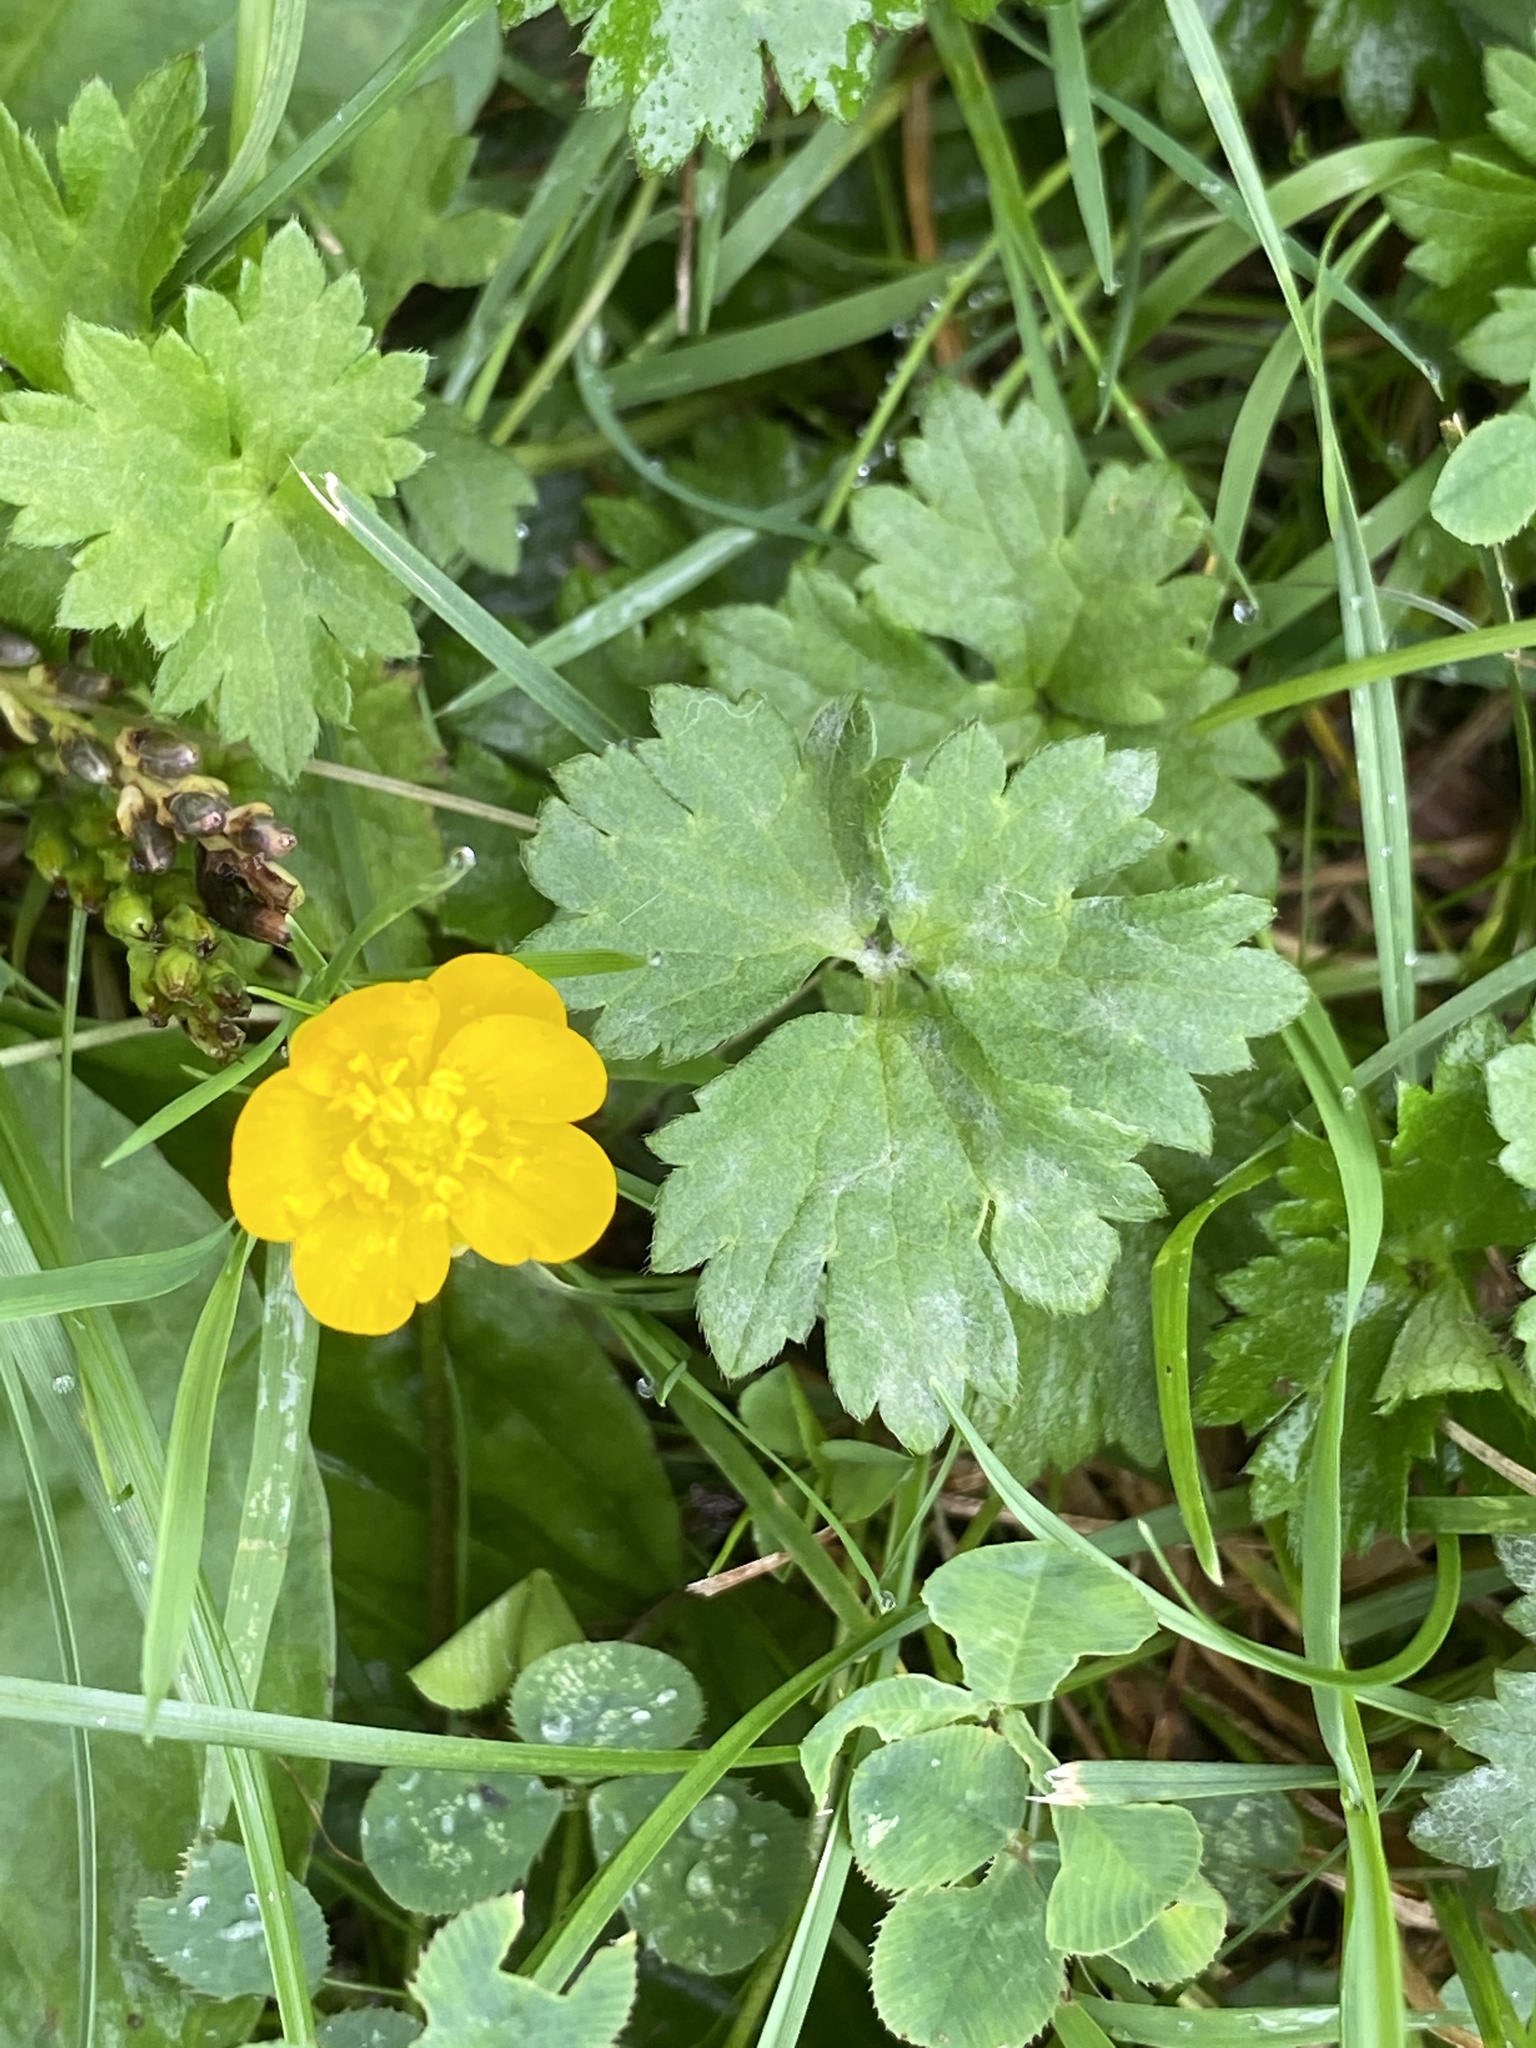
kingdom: Plantae
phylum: Tracheophyta
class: Magnoliopsida
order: Ranunculales
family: Ranunculaceae
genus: Ranunculus
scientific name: Ranunculus repens
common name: Creeping buttercup
